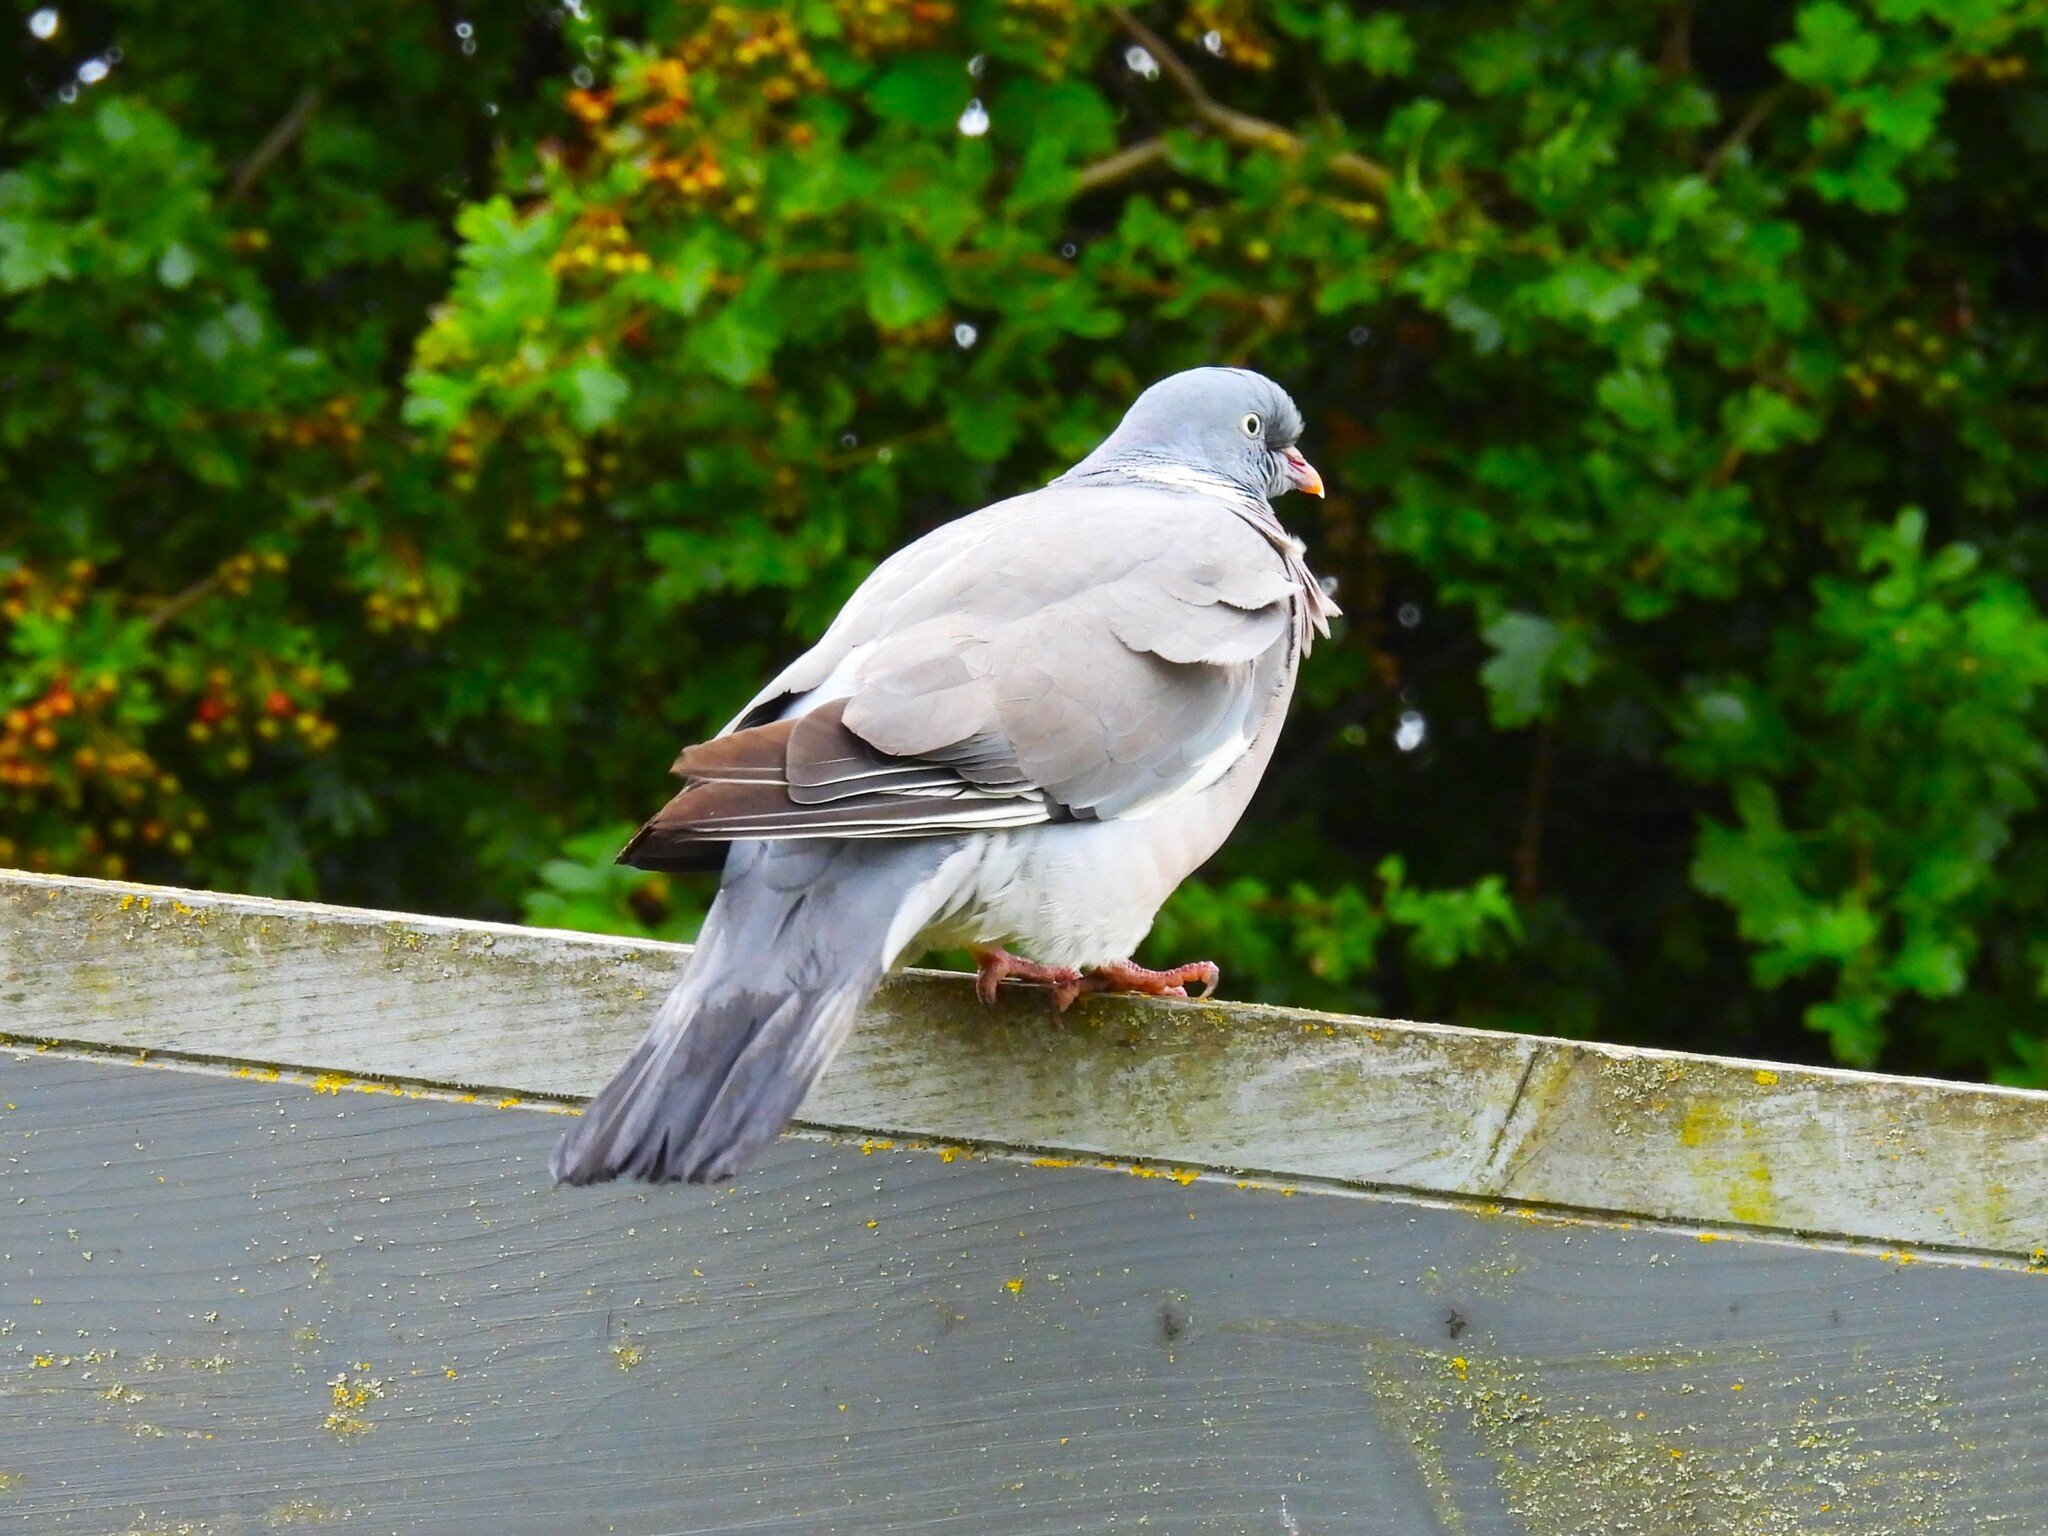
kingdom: Animalia
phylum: Chordata
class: Aves
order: Columbiformes
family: Columbidae
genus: Columba
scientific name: Columba palumbus
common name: Common wood pigeon
